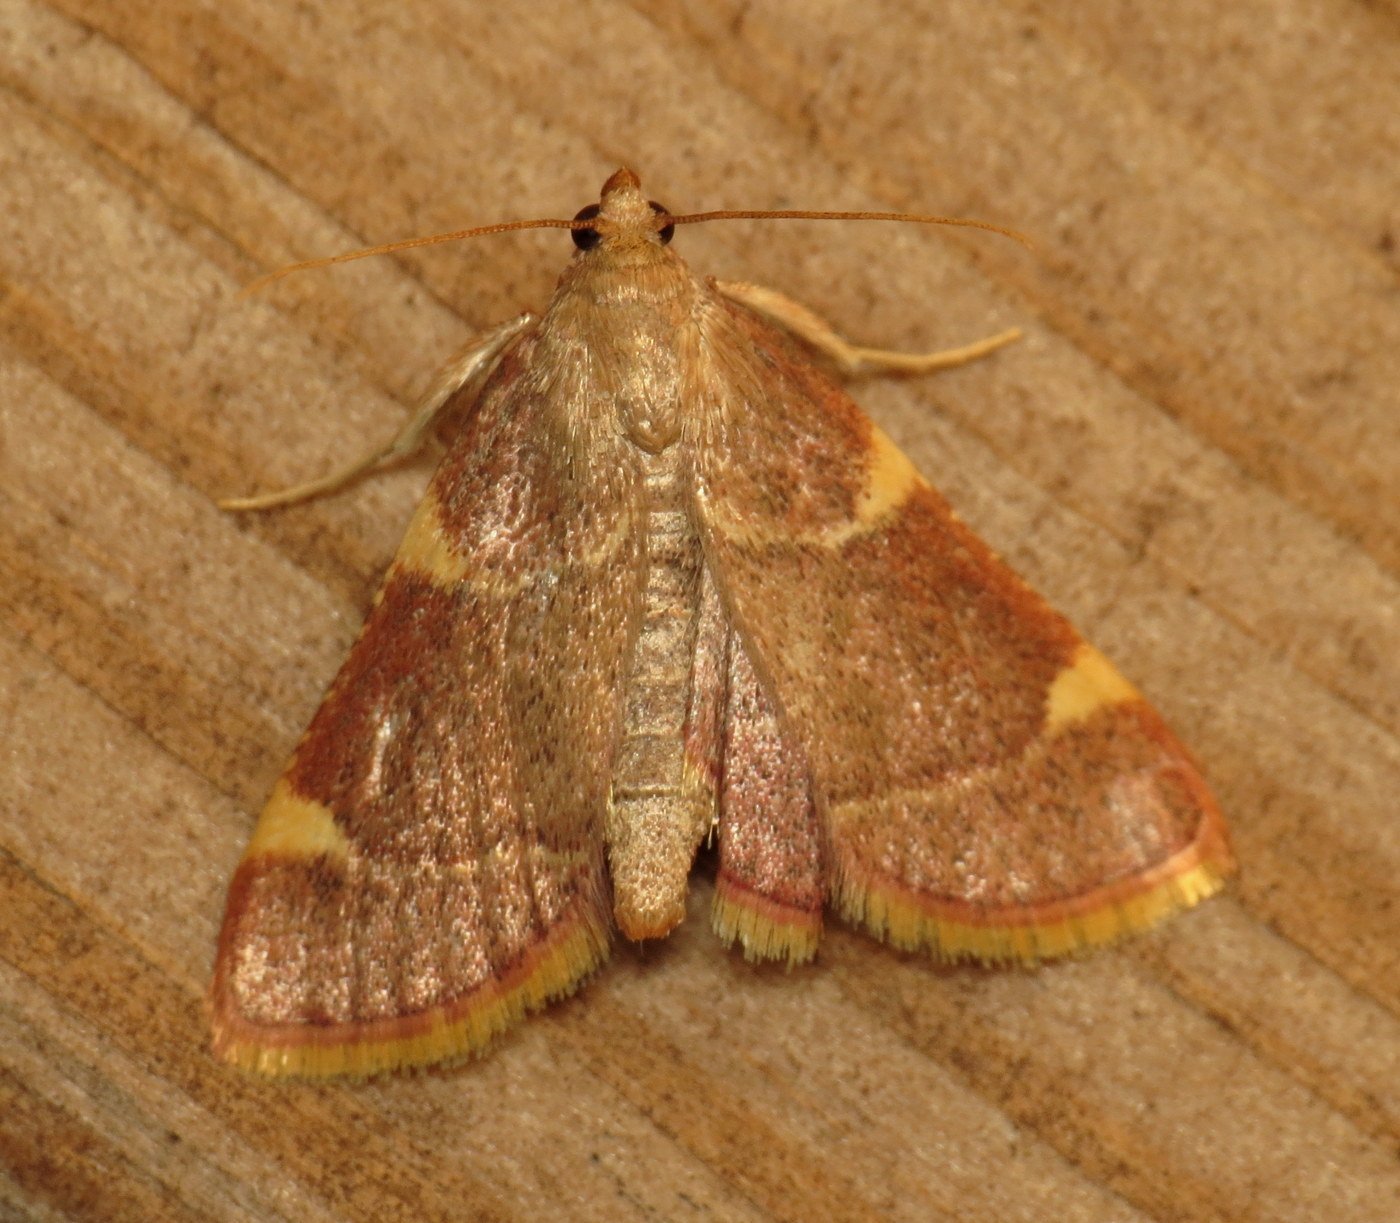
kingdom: Animalia
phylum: Arthropoda
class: Insecta
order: Lepidoptera
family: Pyralidae
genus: Hypsopygia
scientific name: Hypsopygia olinalis
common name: Yellow-fringed dolichomia moth
